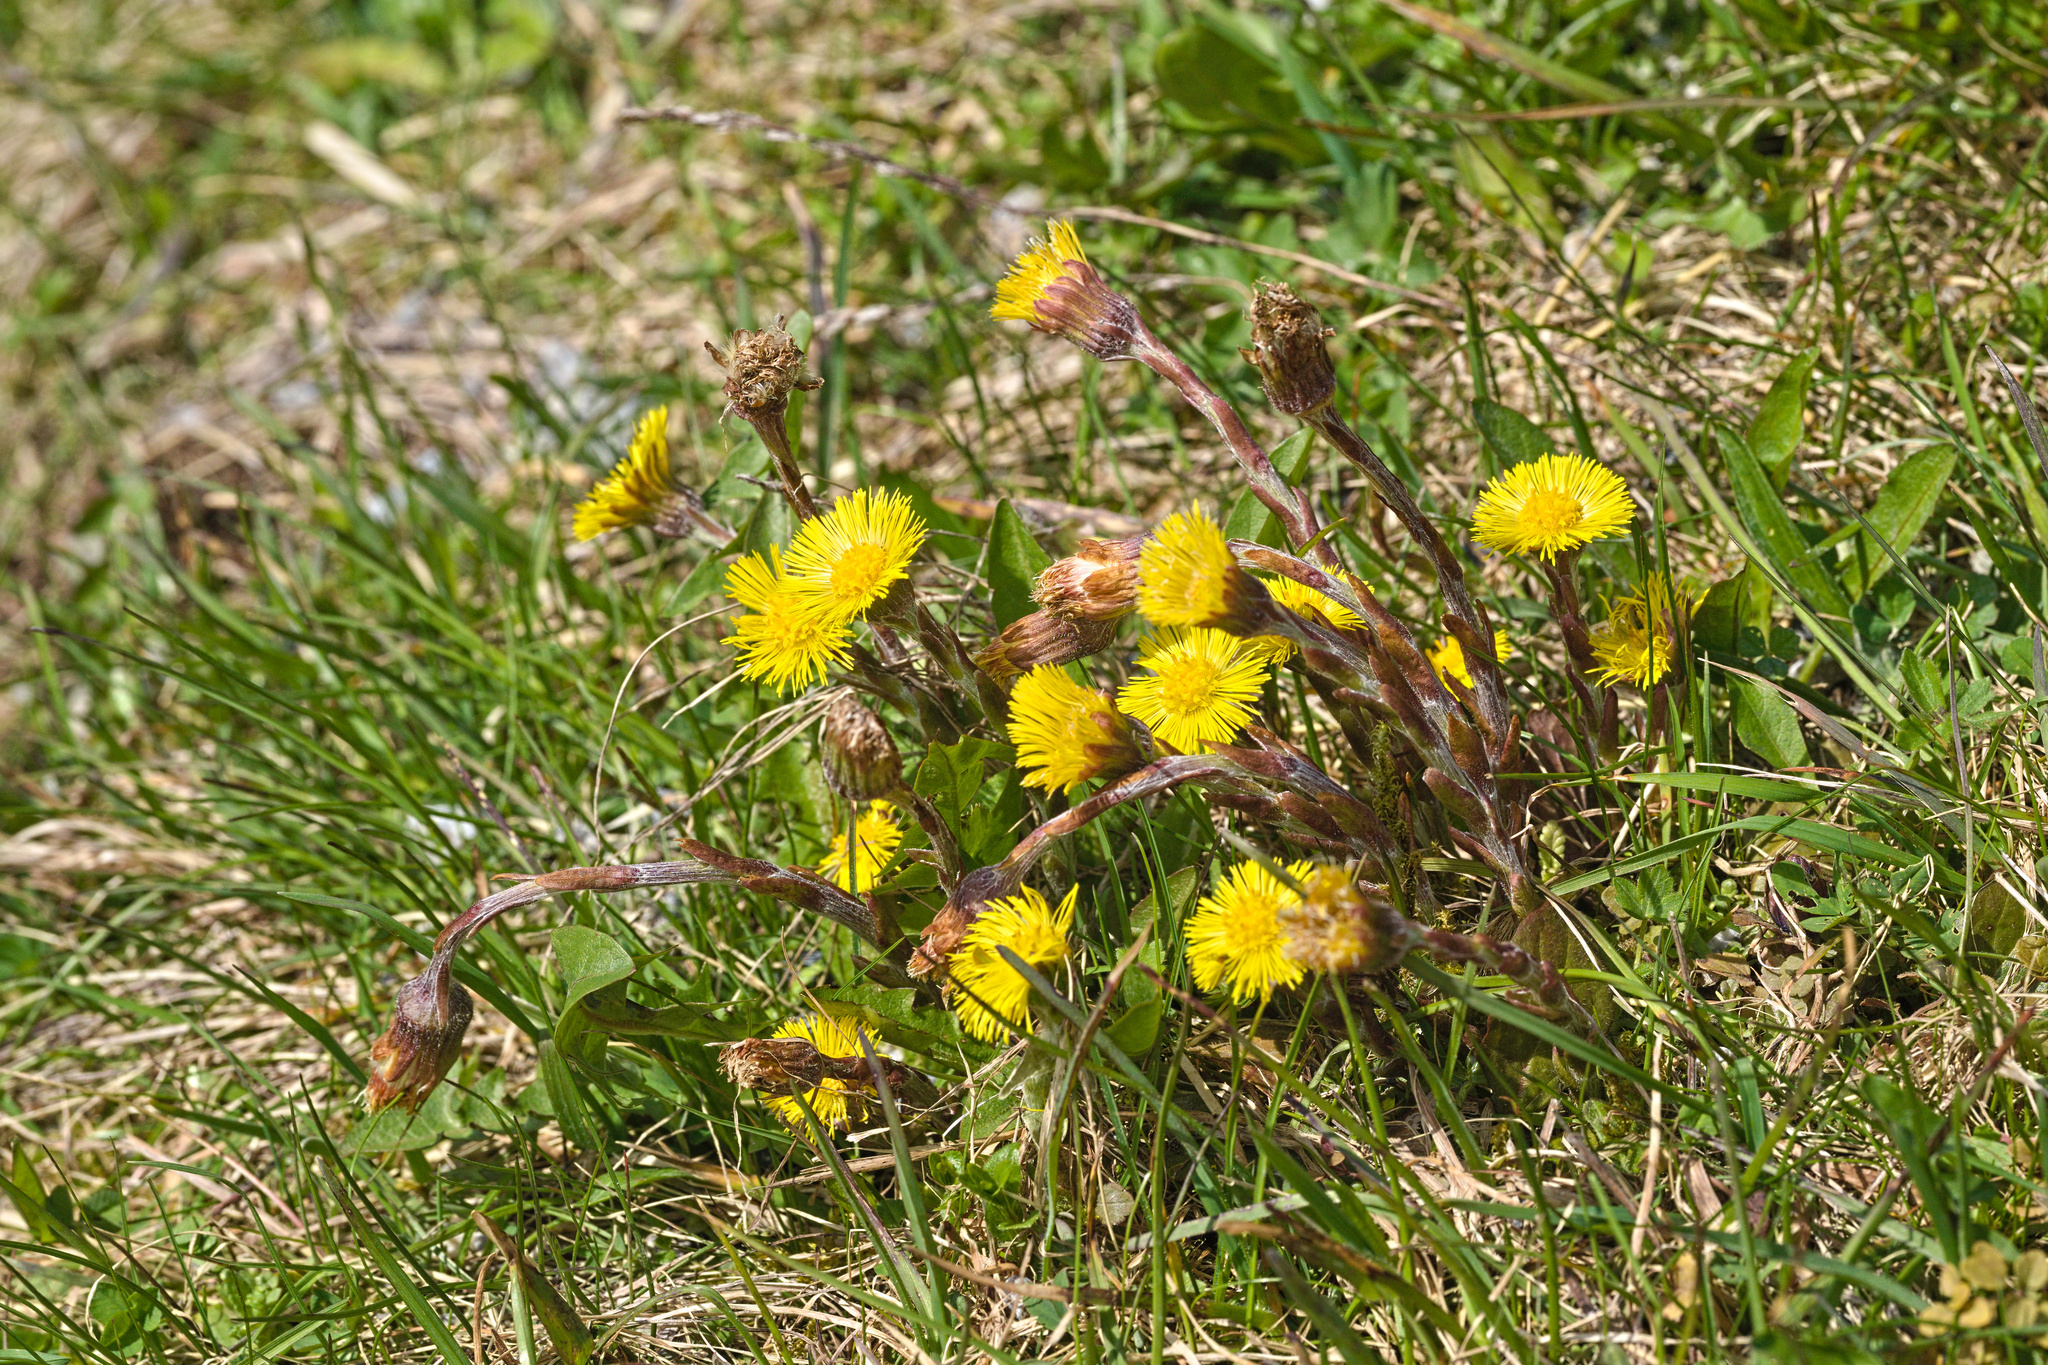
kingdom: Plantae
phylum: Tracheophyta
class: Magnoliopsida
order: Asterales
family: Asteraceae
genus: Tussilago
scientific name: Tussilago farfara
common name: Coltsfoot
